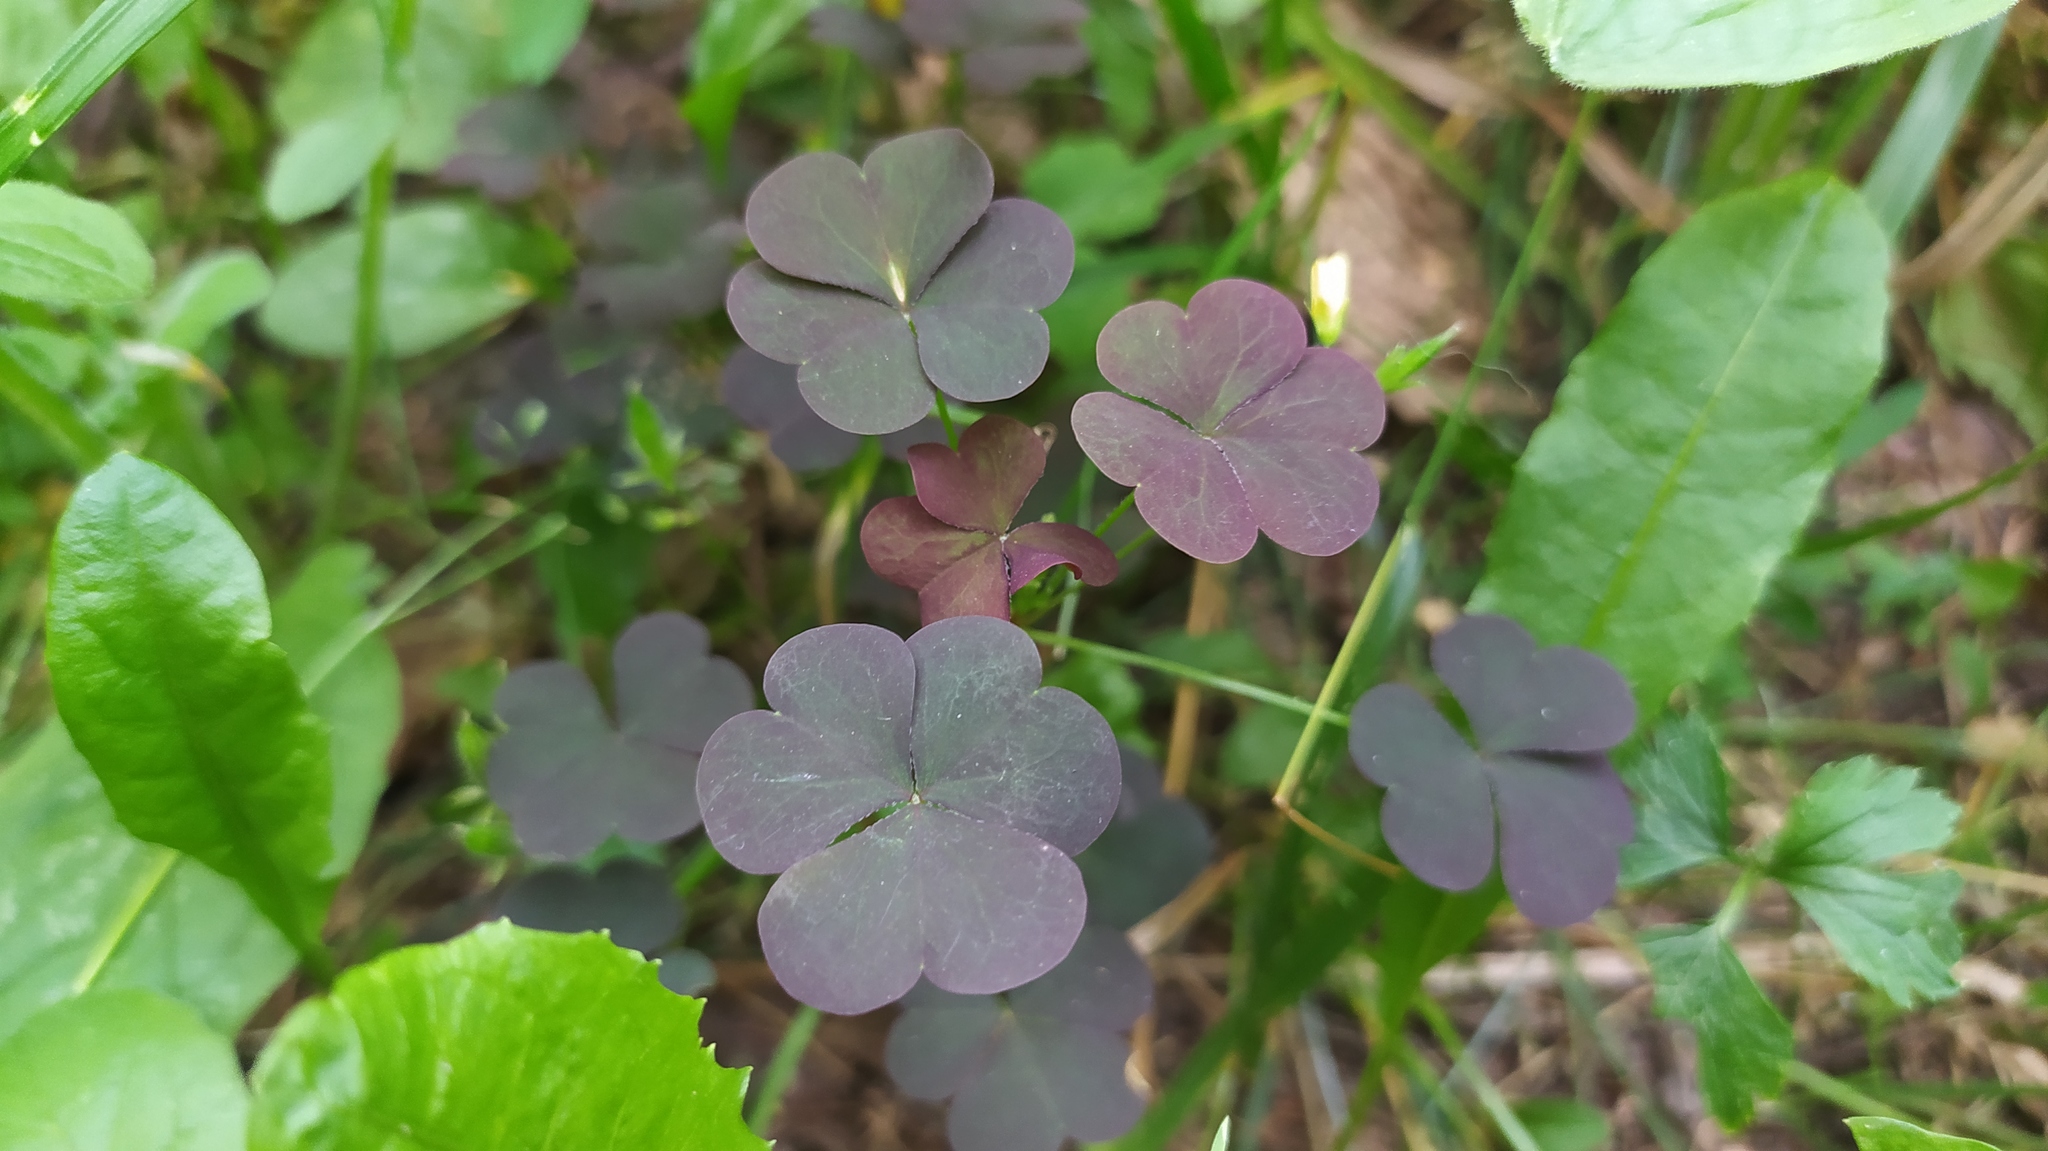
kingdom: Plantae
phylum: Tracheophyta
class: Magnoliopsida
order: Oxalidales
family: Oxalidaceae
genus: Oxalis
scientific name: Oxalis stricta
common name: Upright yellow-sorrel
